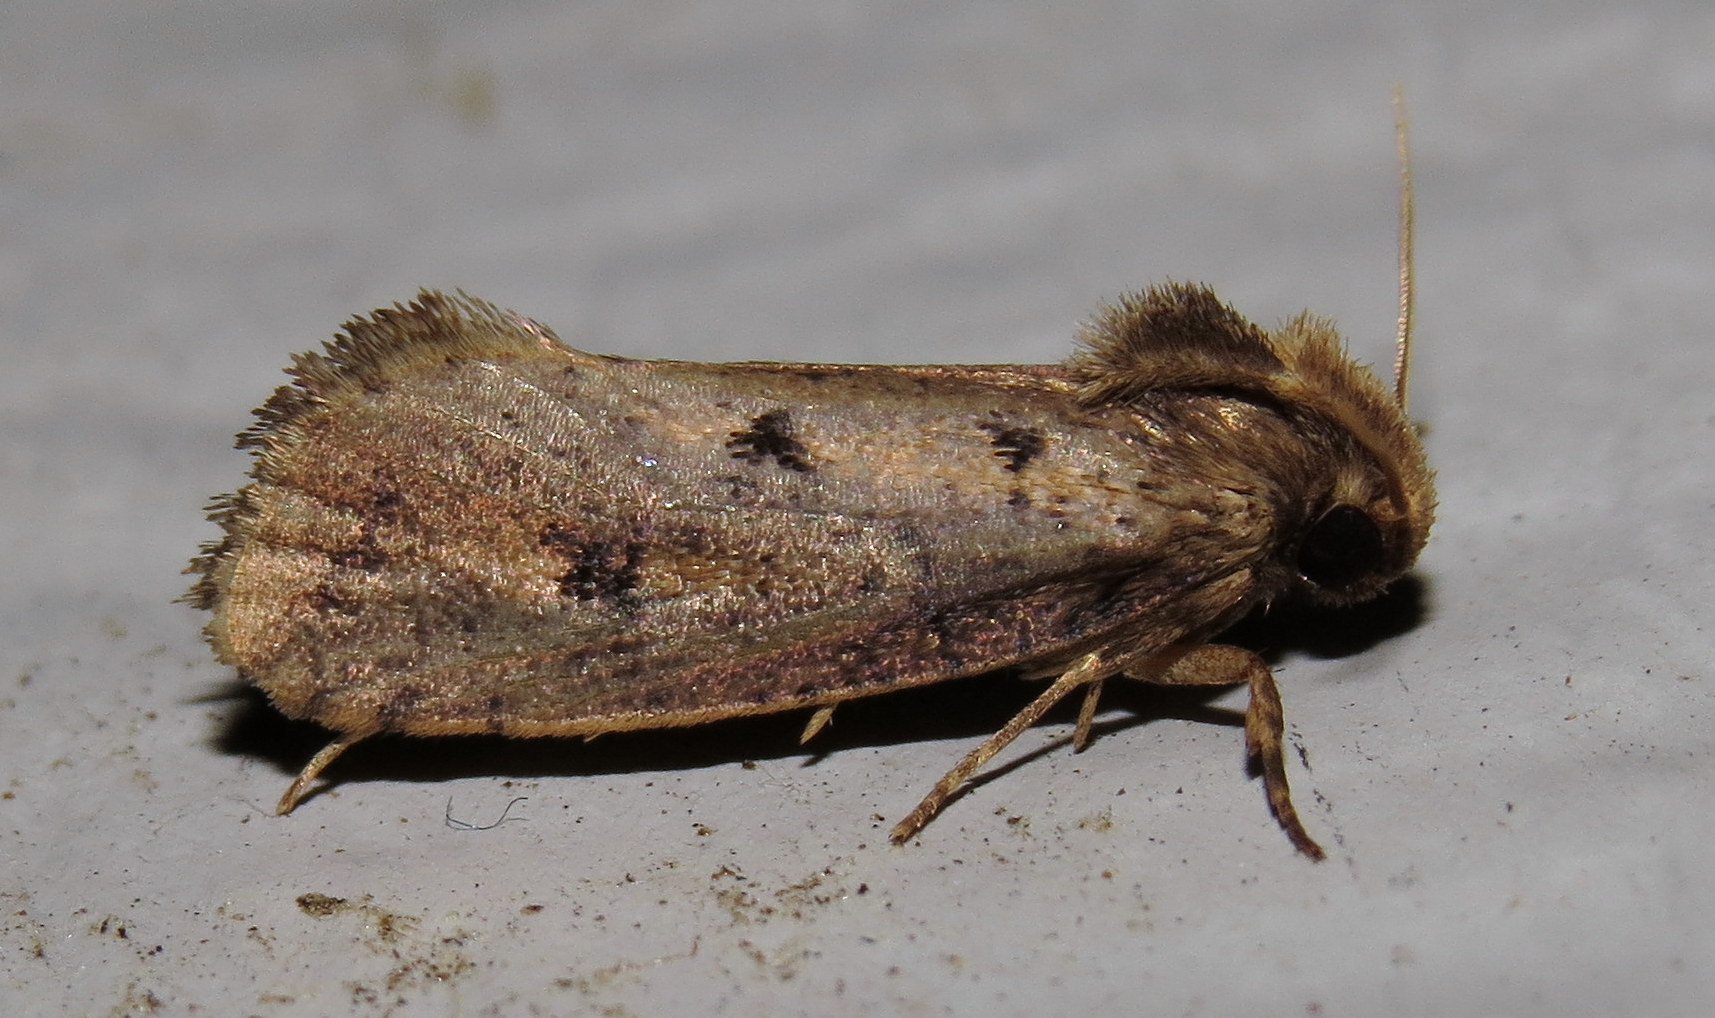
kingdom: Animalia
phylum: Arthropoda
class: Insecta
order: Lepidoptera
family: Tineidae
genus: Acrolophus
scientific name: Acrolophus popeanella
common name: Clemens' grass tubeworm moth
